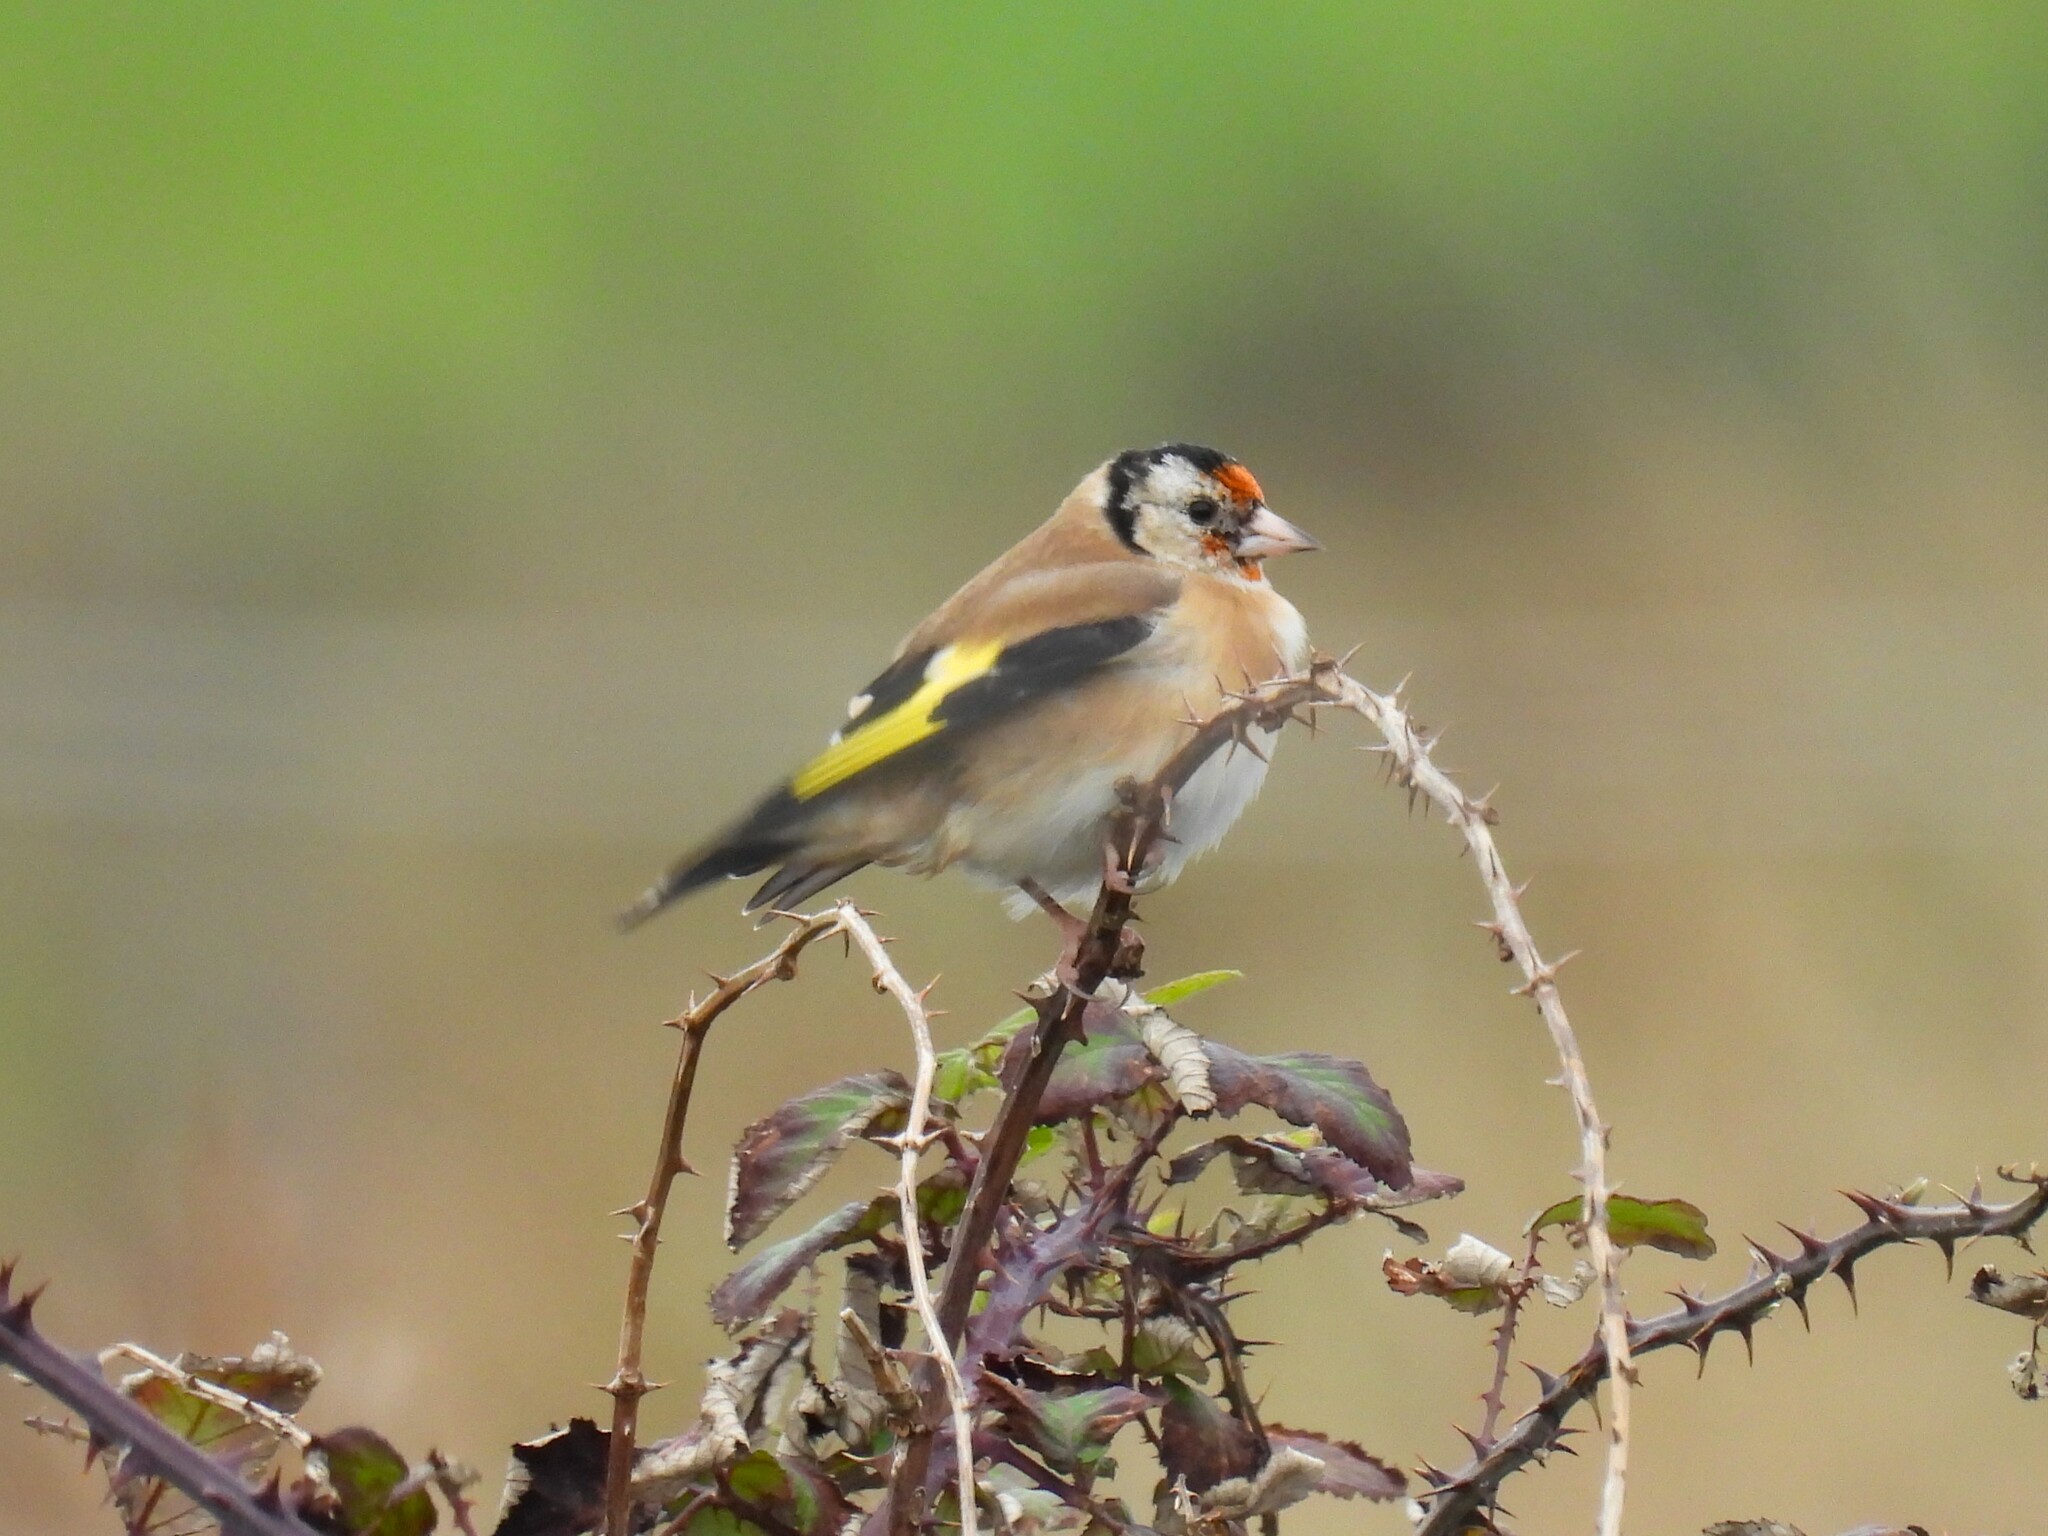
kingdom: Animalia
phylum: Chordata
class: Aves
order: Passeriformes
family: Fringillidae
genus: Carduelis
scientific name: Carduelis carduelis
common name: European goldfinch
